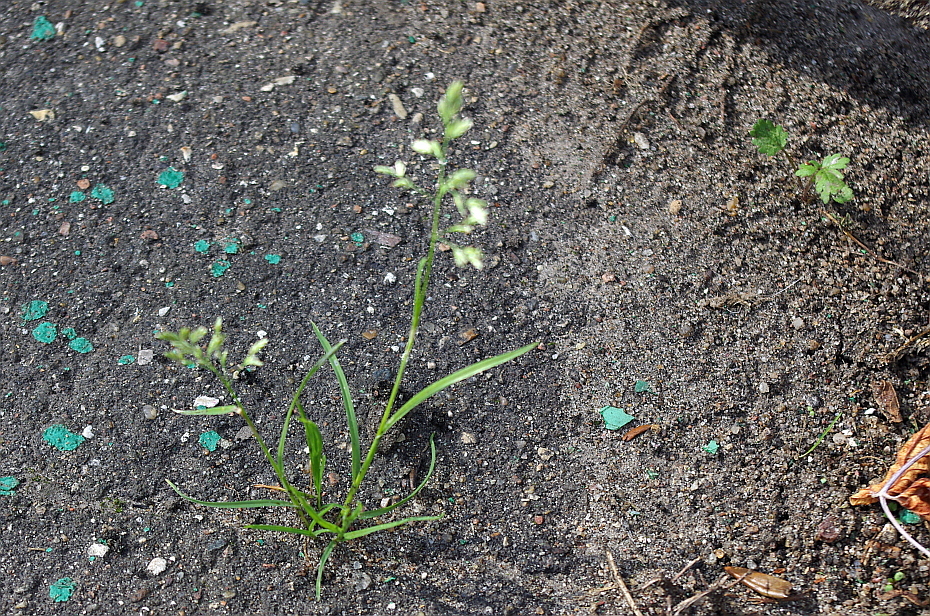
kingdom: Plantae
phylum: Tracheophyta
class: Liliopsida
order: Poales
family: Poaceae
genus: Poa
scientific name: Poa annua
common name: Annual bluegrass
